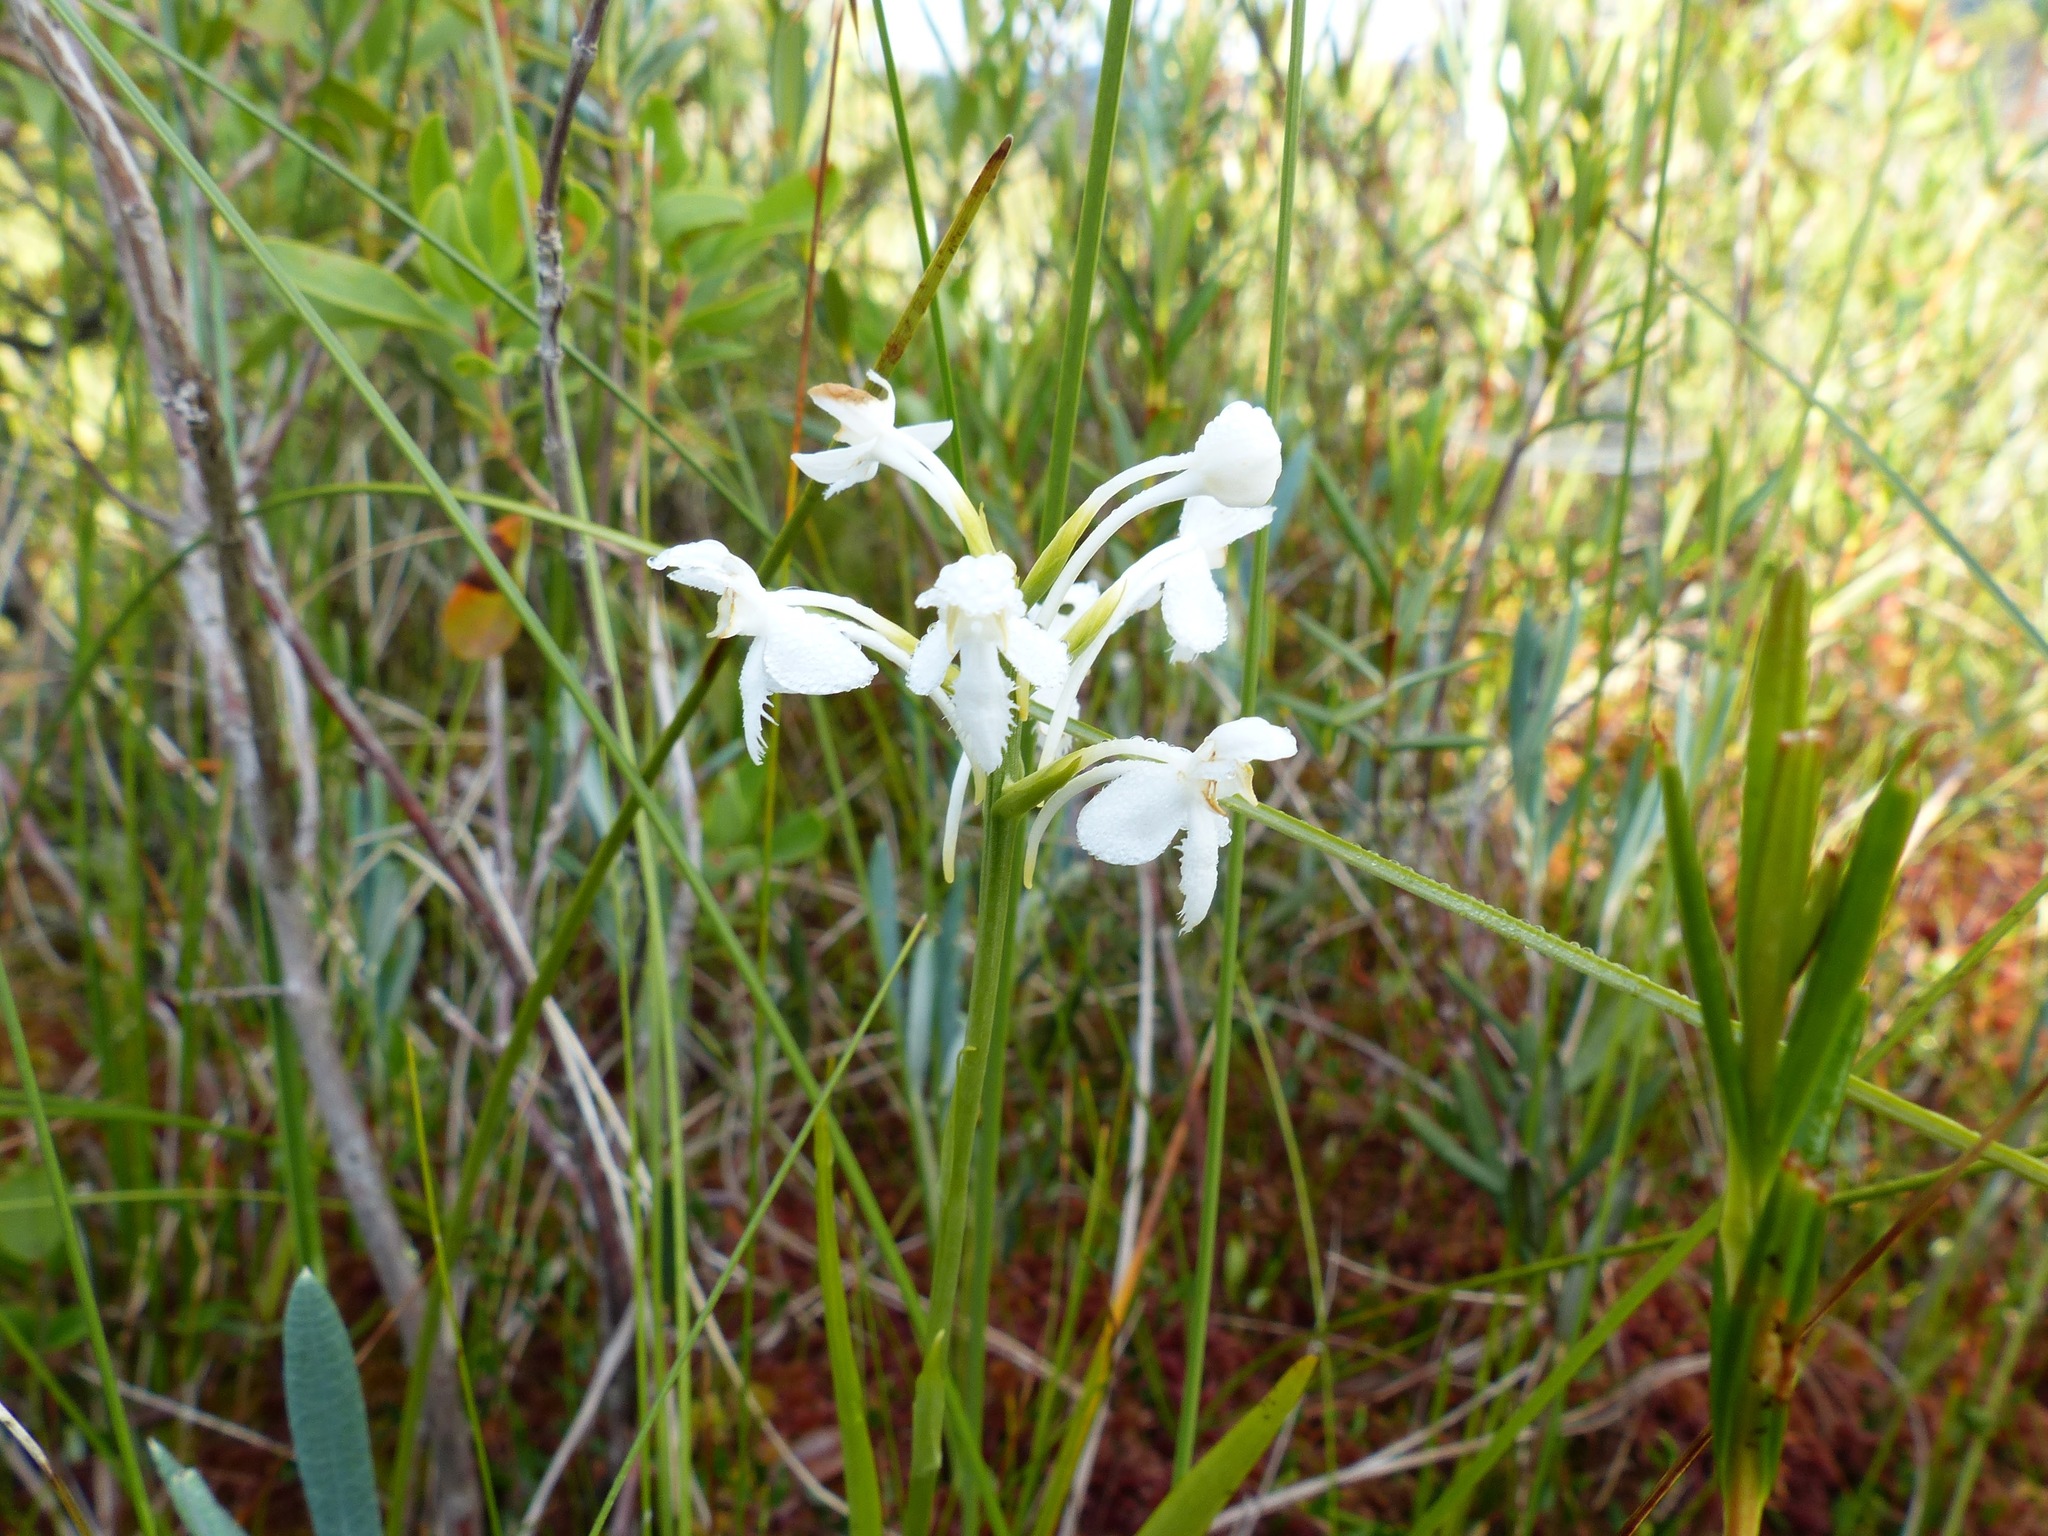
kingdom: Plantae
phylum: Tracheophyta
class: Liliopsida
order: Asparagales
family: Orchidaceae
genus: Platanthera
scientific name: Platanthera blephariglottis
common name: White fringed orchid
